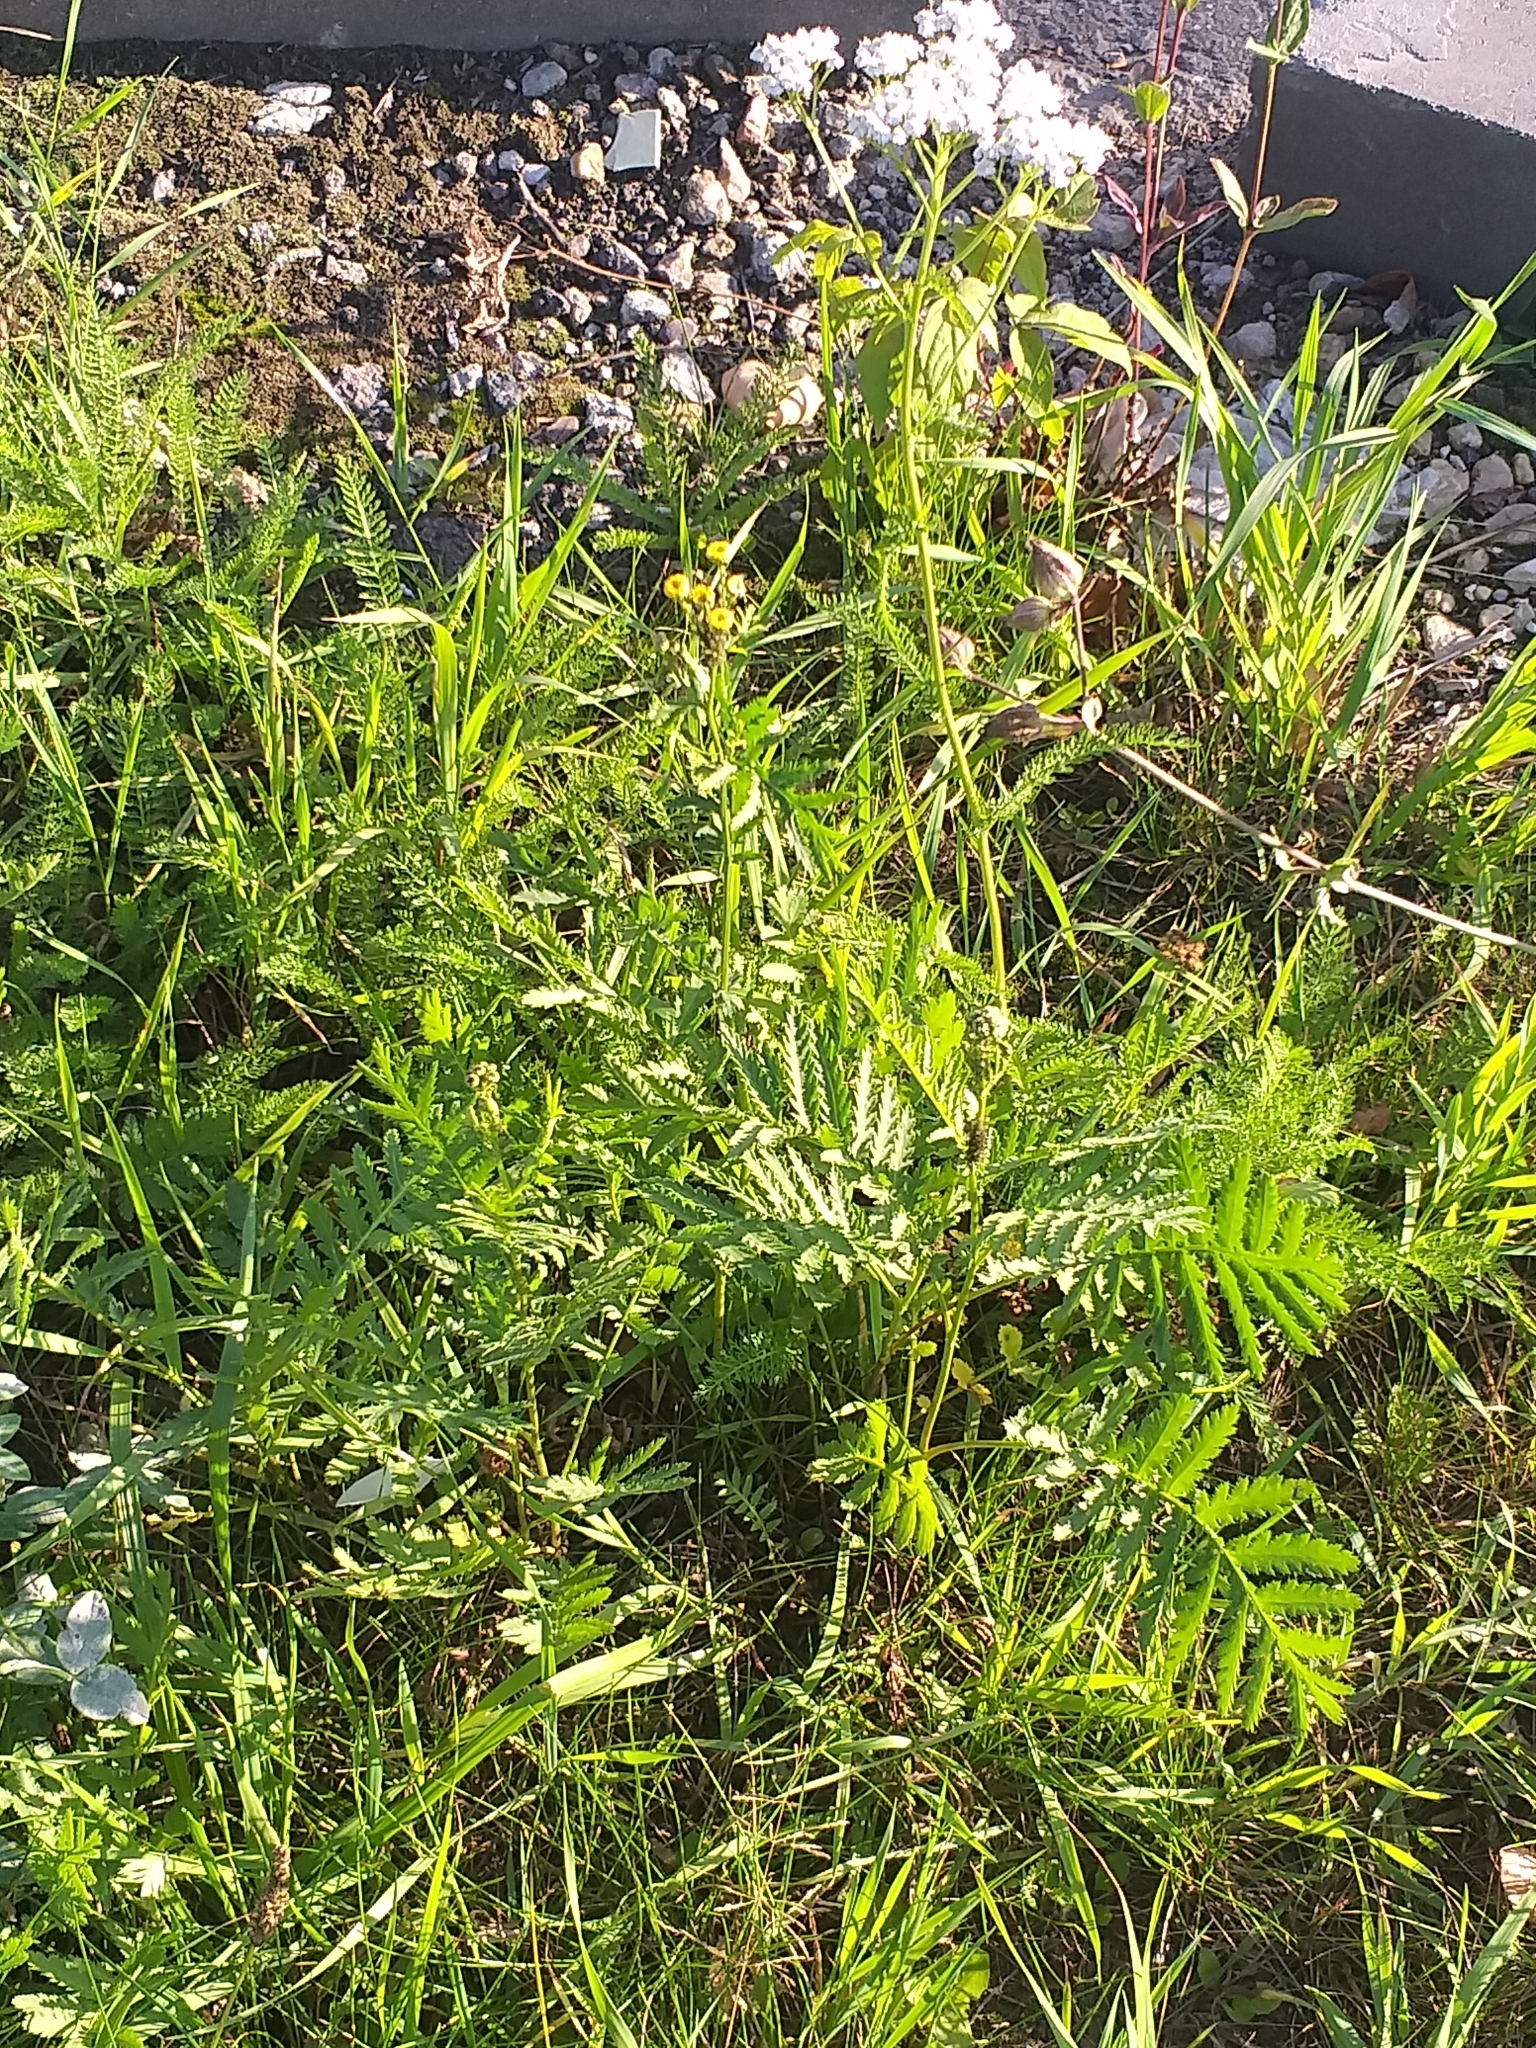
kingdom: Plantae
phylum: Tracheophyta
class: Magnoliopsida
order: Asterales
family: Asteraceae
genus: Tanacetum
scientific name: Tanacetum vulgare
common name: Common tansy
